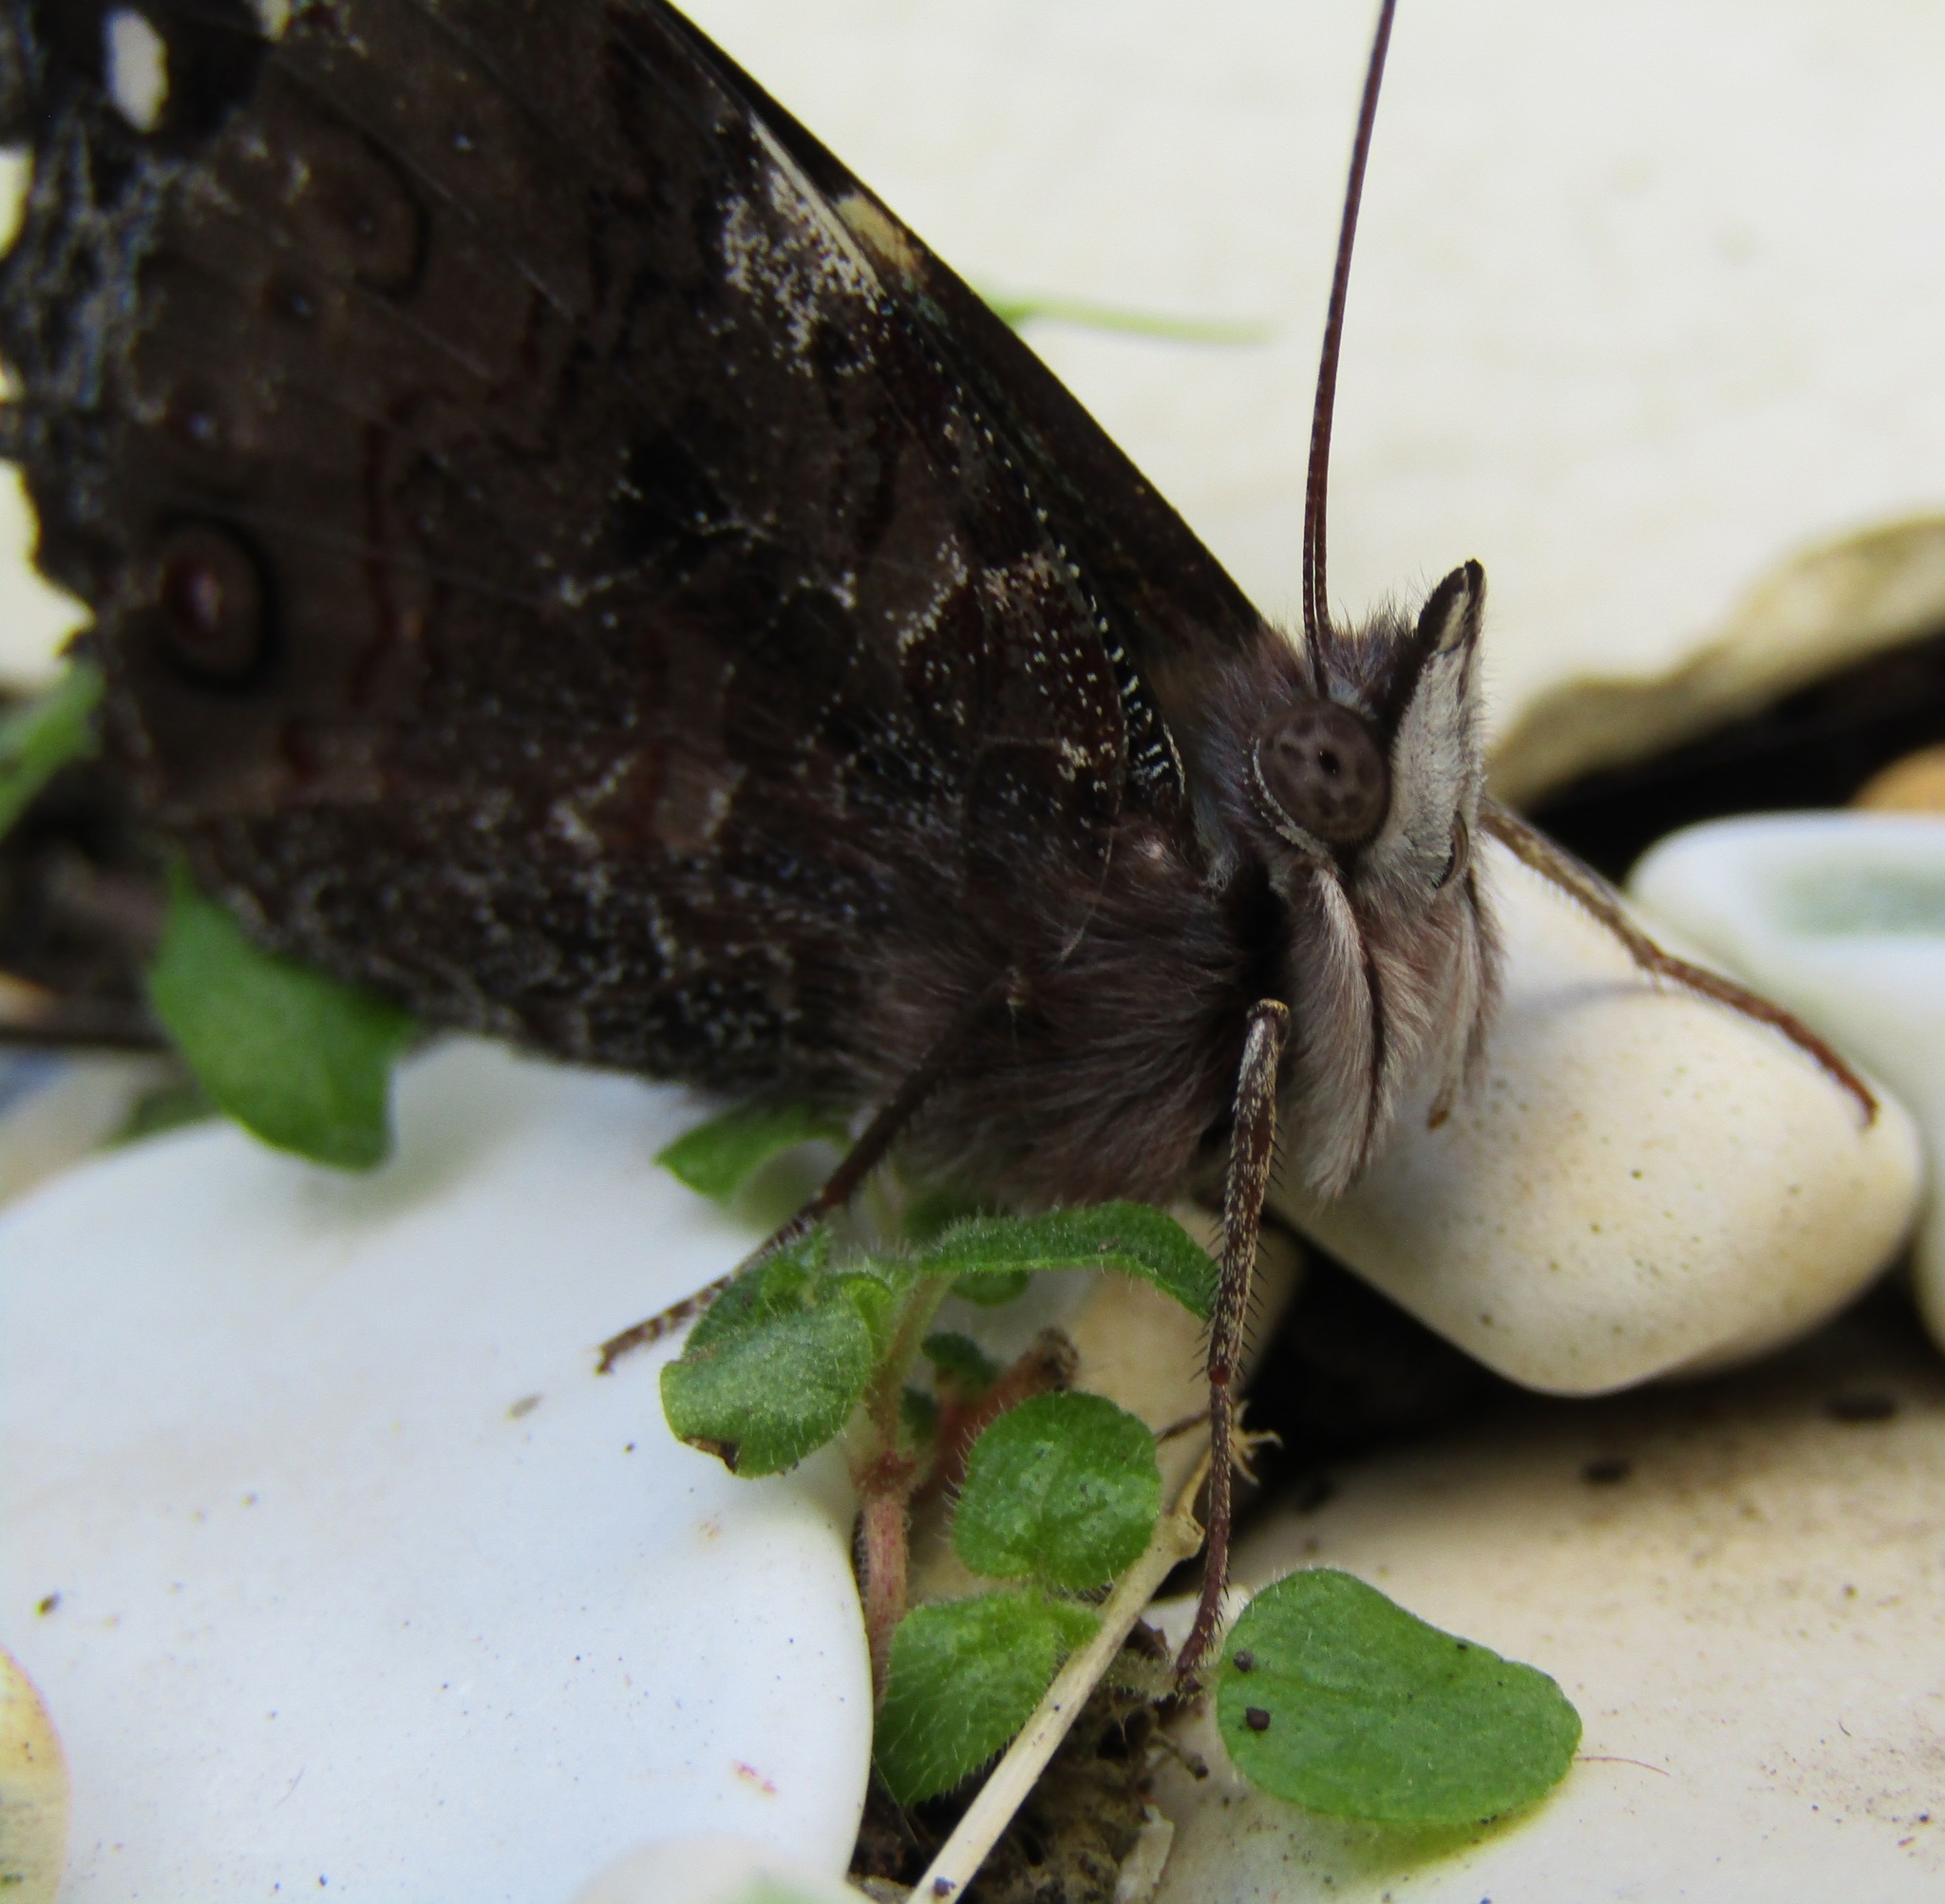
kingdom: Animalia
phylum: Arthropoda
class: Insecta
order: Lepidoptera
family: Nymphalidae
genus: Vanessa
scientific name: Vanessa itea
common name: Yellow admiral
